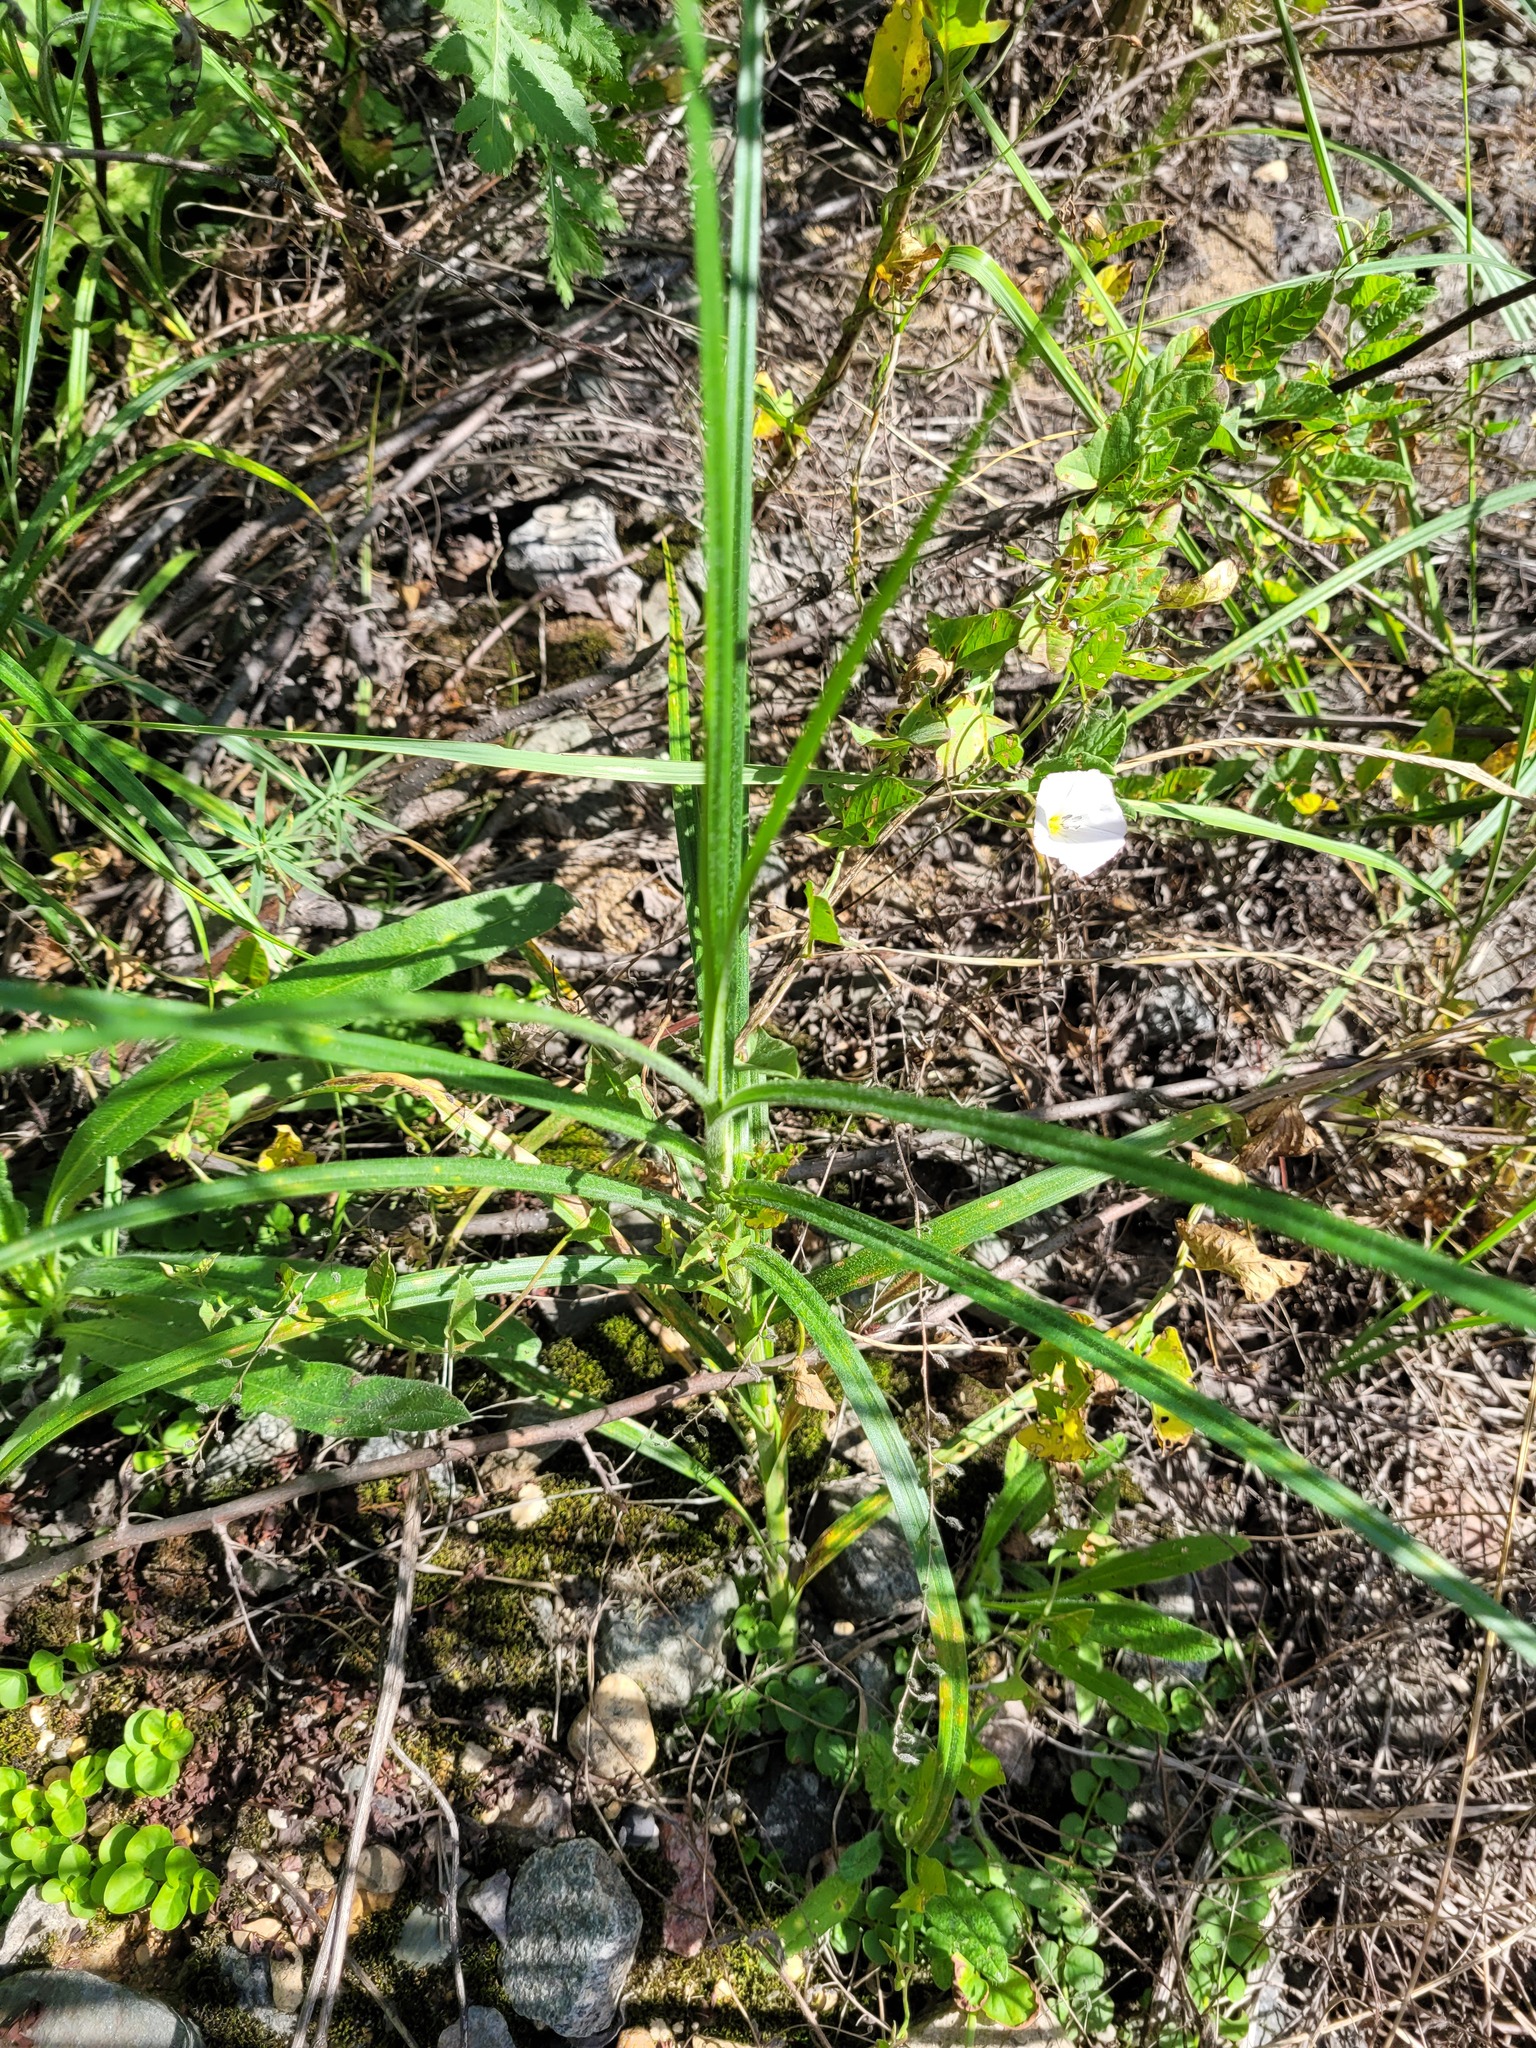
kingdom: Plantae
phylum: Tracheophyta
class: Liliopsida
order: Poales
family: Cyperaceae
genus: Carex
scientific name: Carex hirta
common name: Hairy sedge
